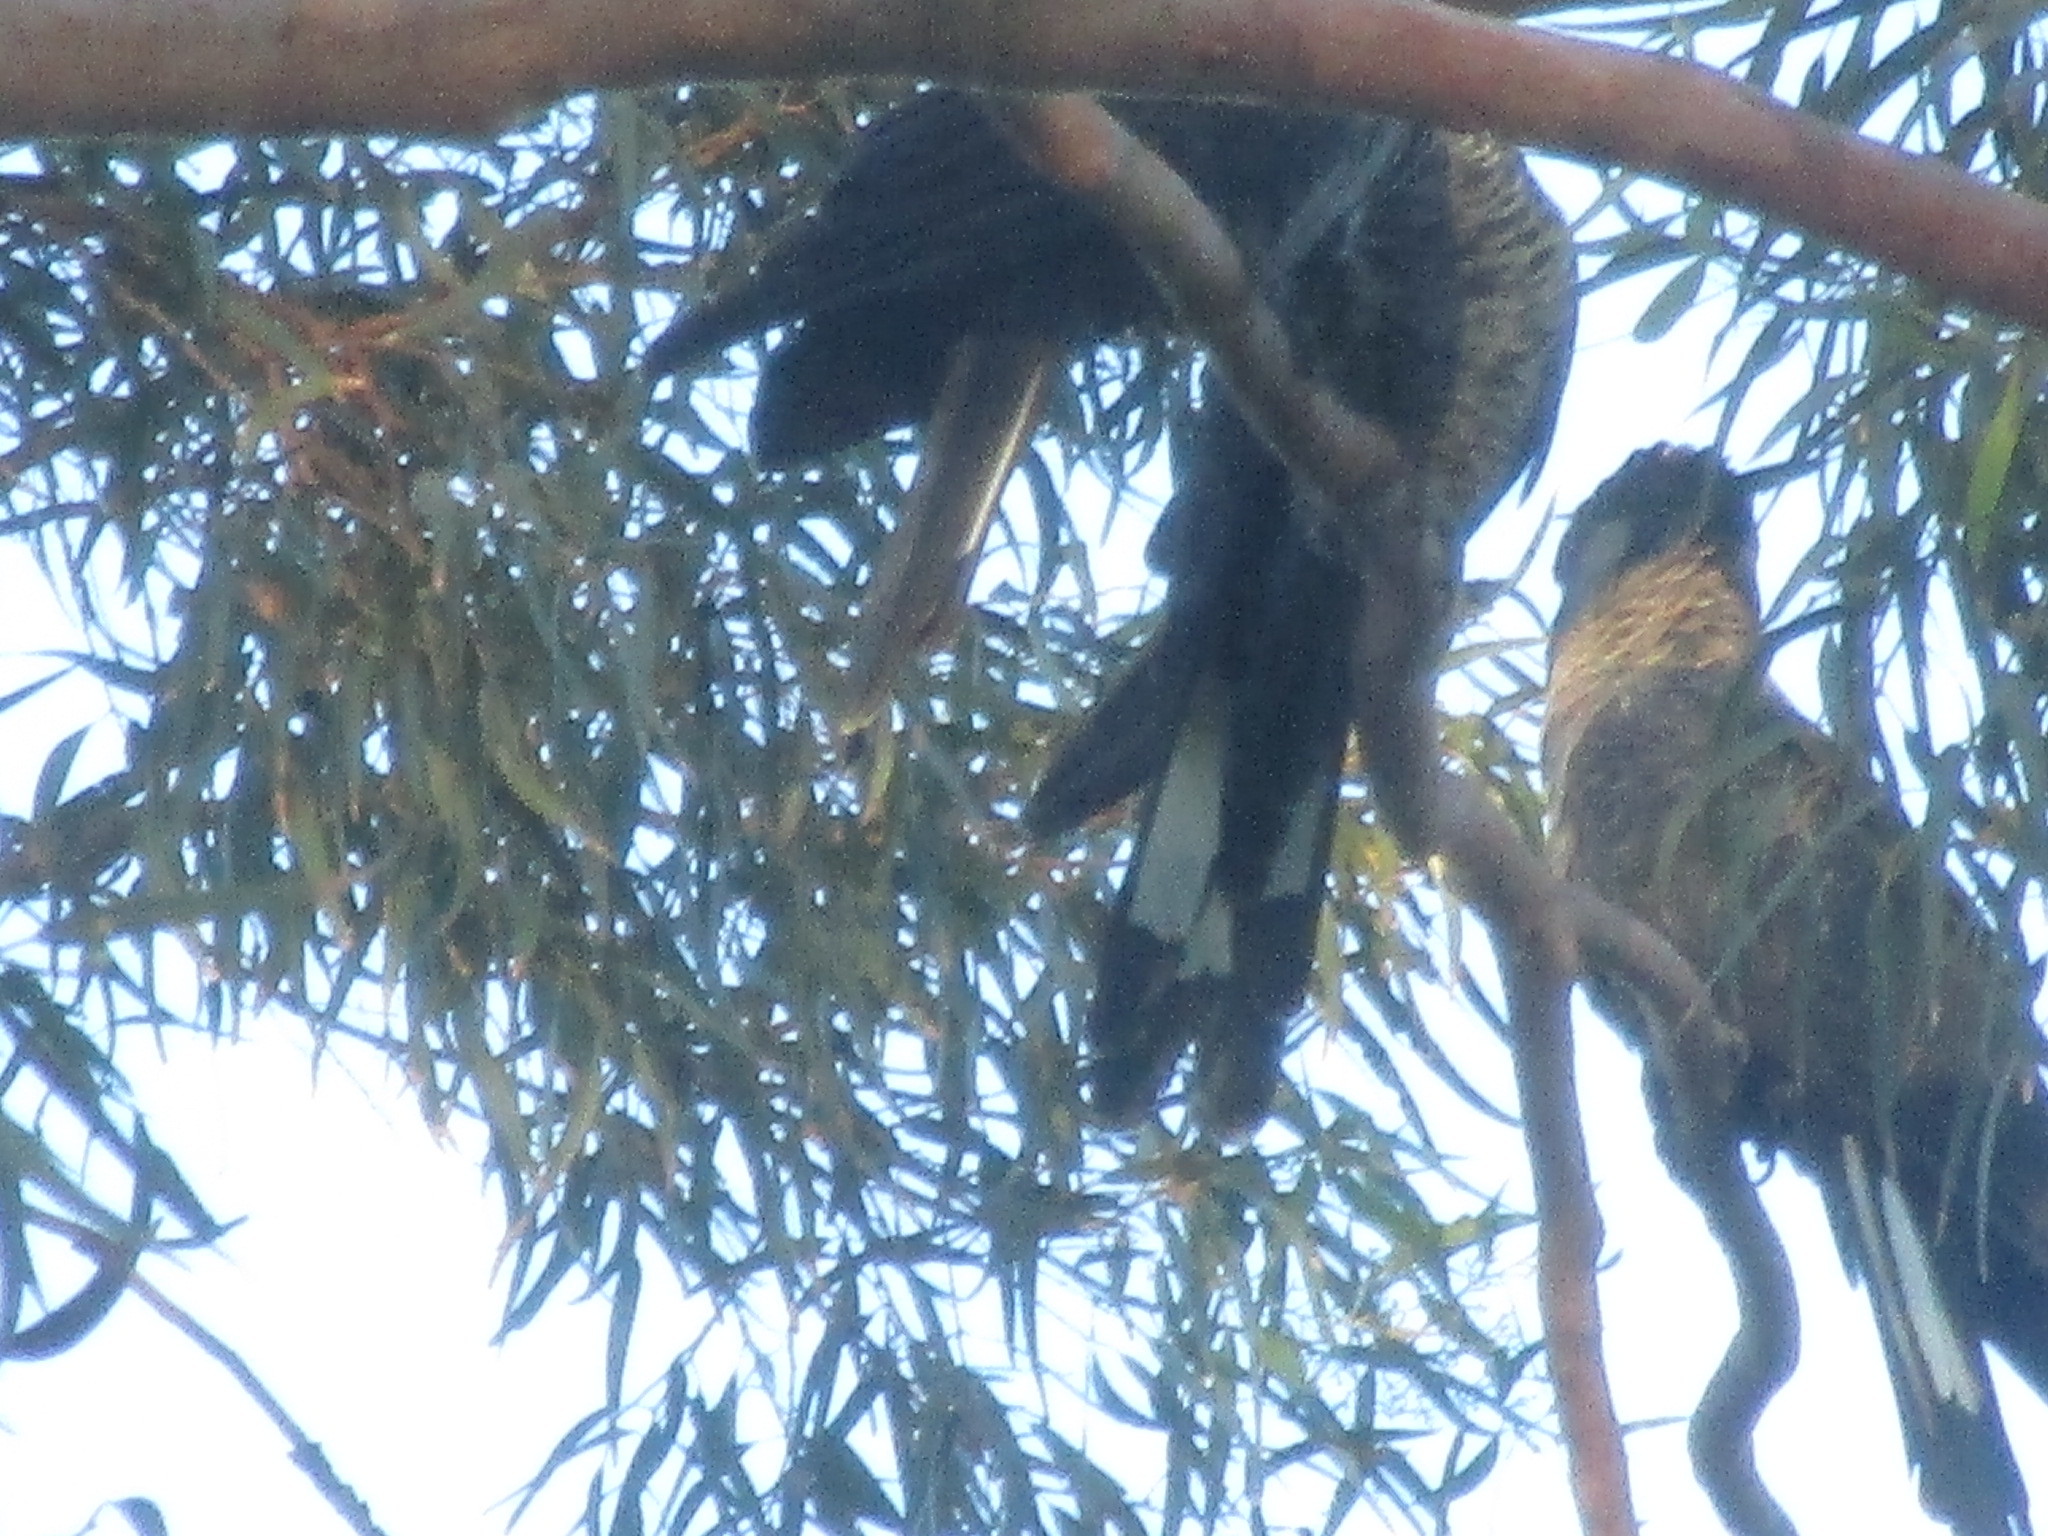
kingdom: Animalia
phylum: Chordata
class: Aves
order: Psittaciformes
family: Cacatuidae
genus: Zanda
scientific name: Zanda latirostris
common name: Short-billed black-cockatoo
